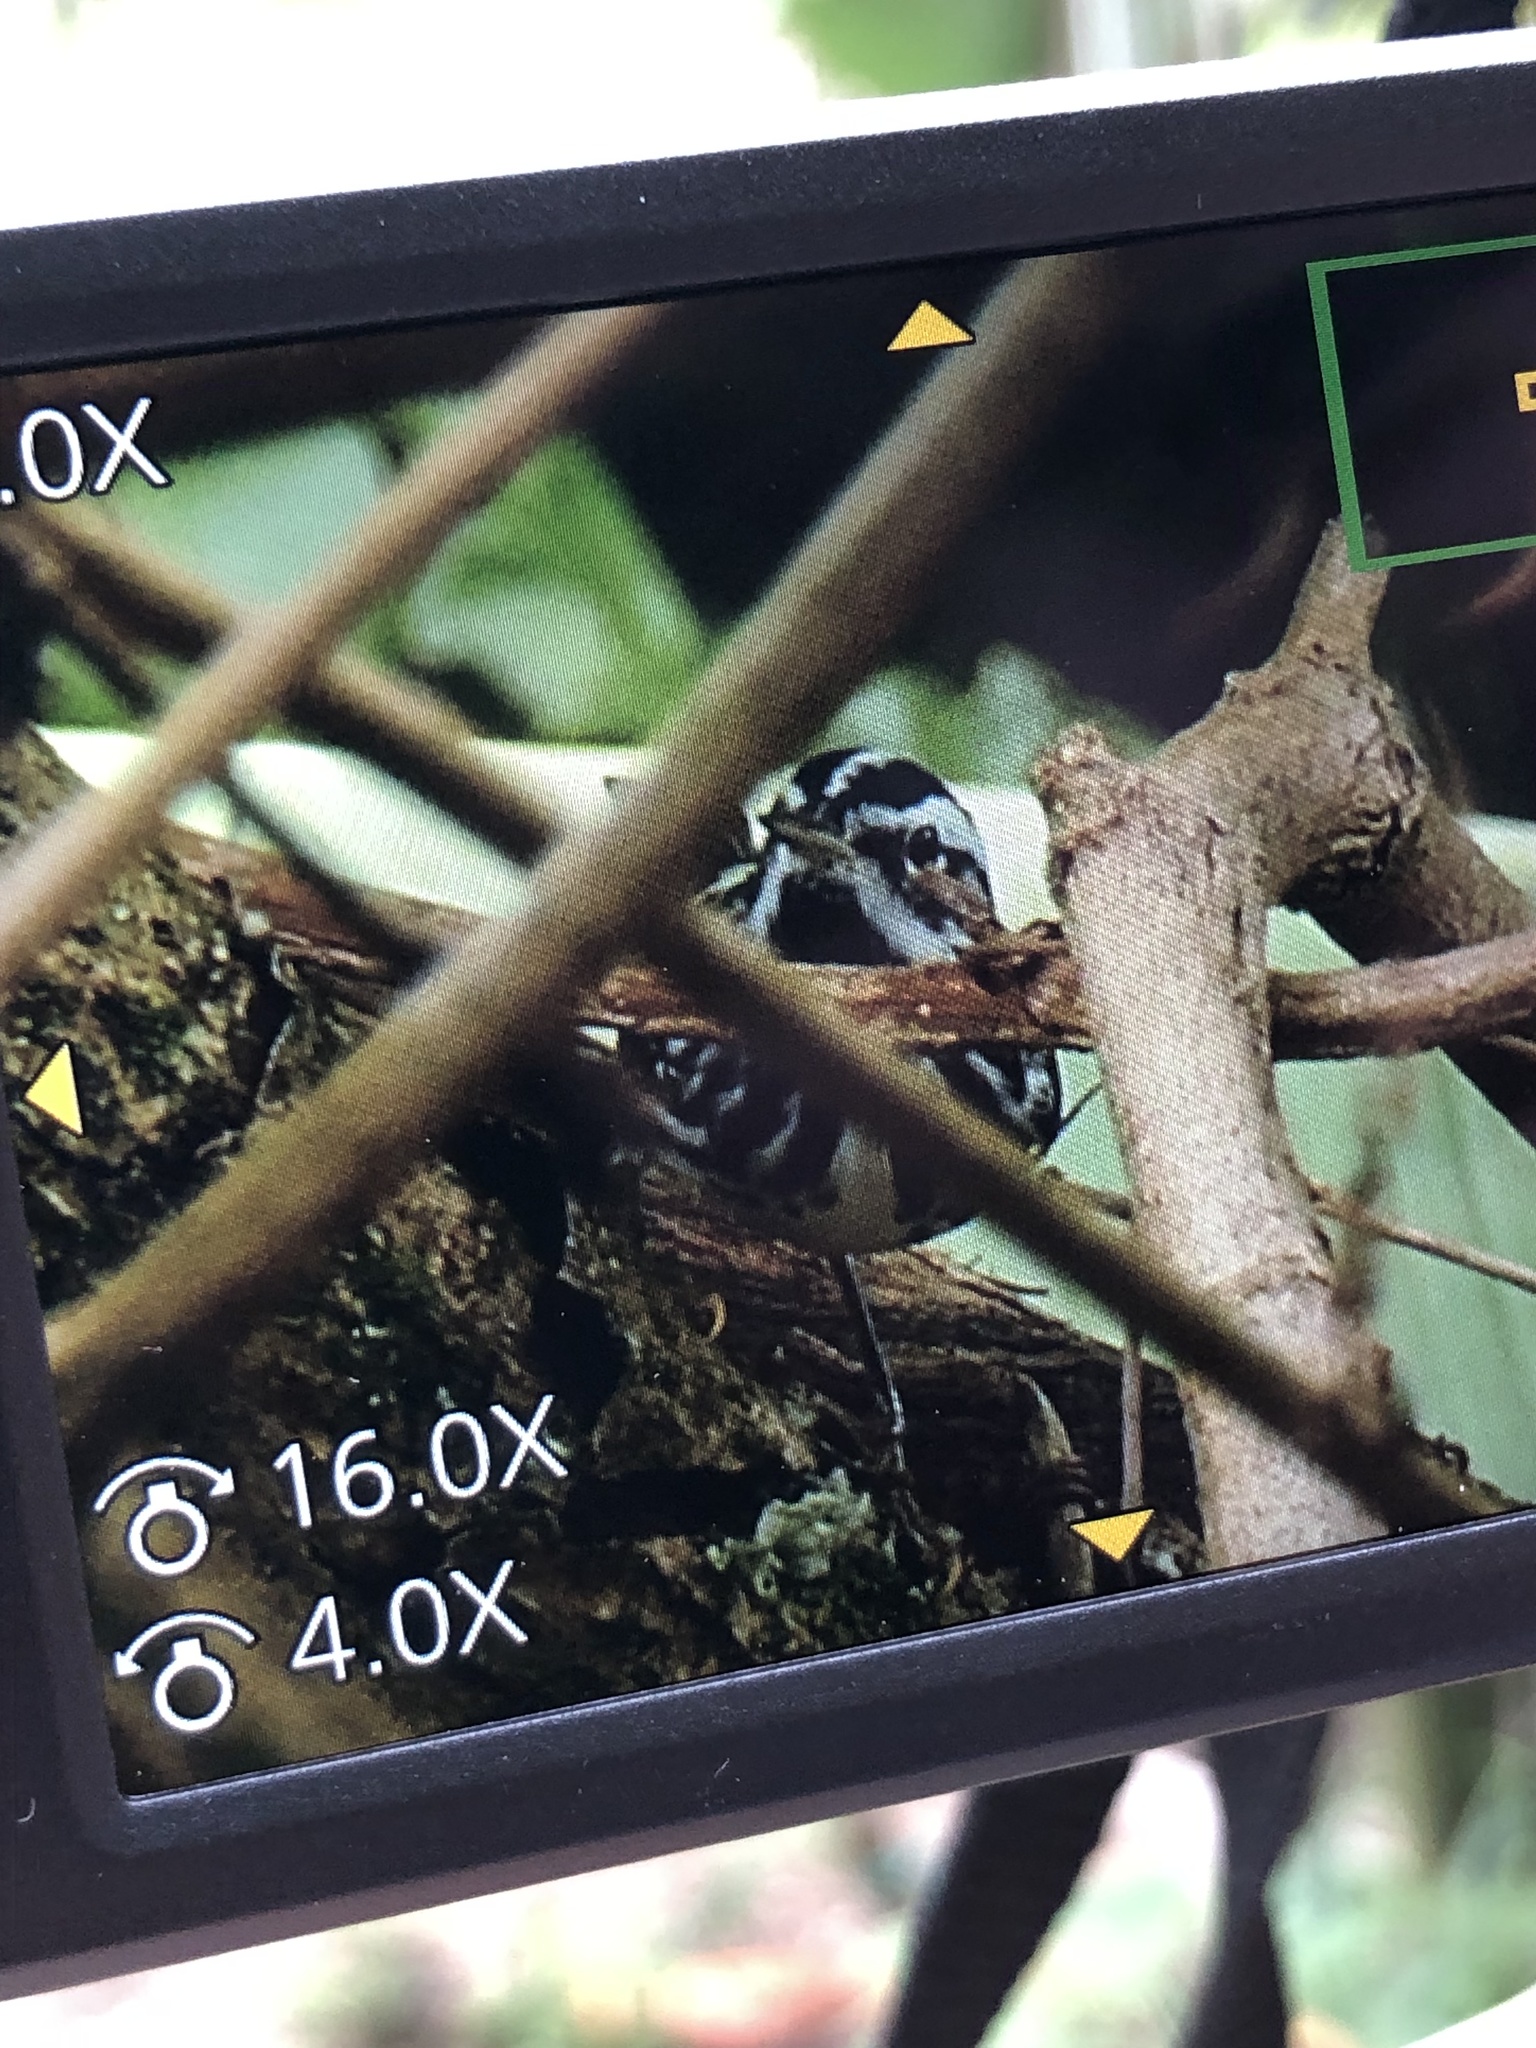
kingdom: Animalia
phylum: Chordata
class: Aves
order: Passeriformes
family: Parulidae
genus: Mniotilta
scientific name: Mniotilta varia
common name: Black-and-white warbler
